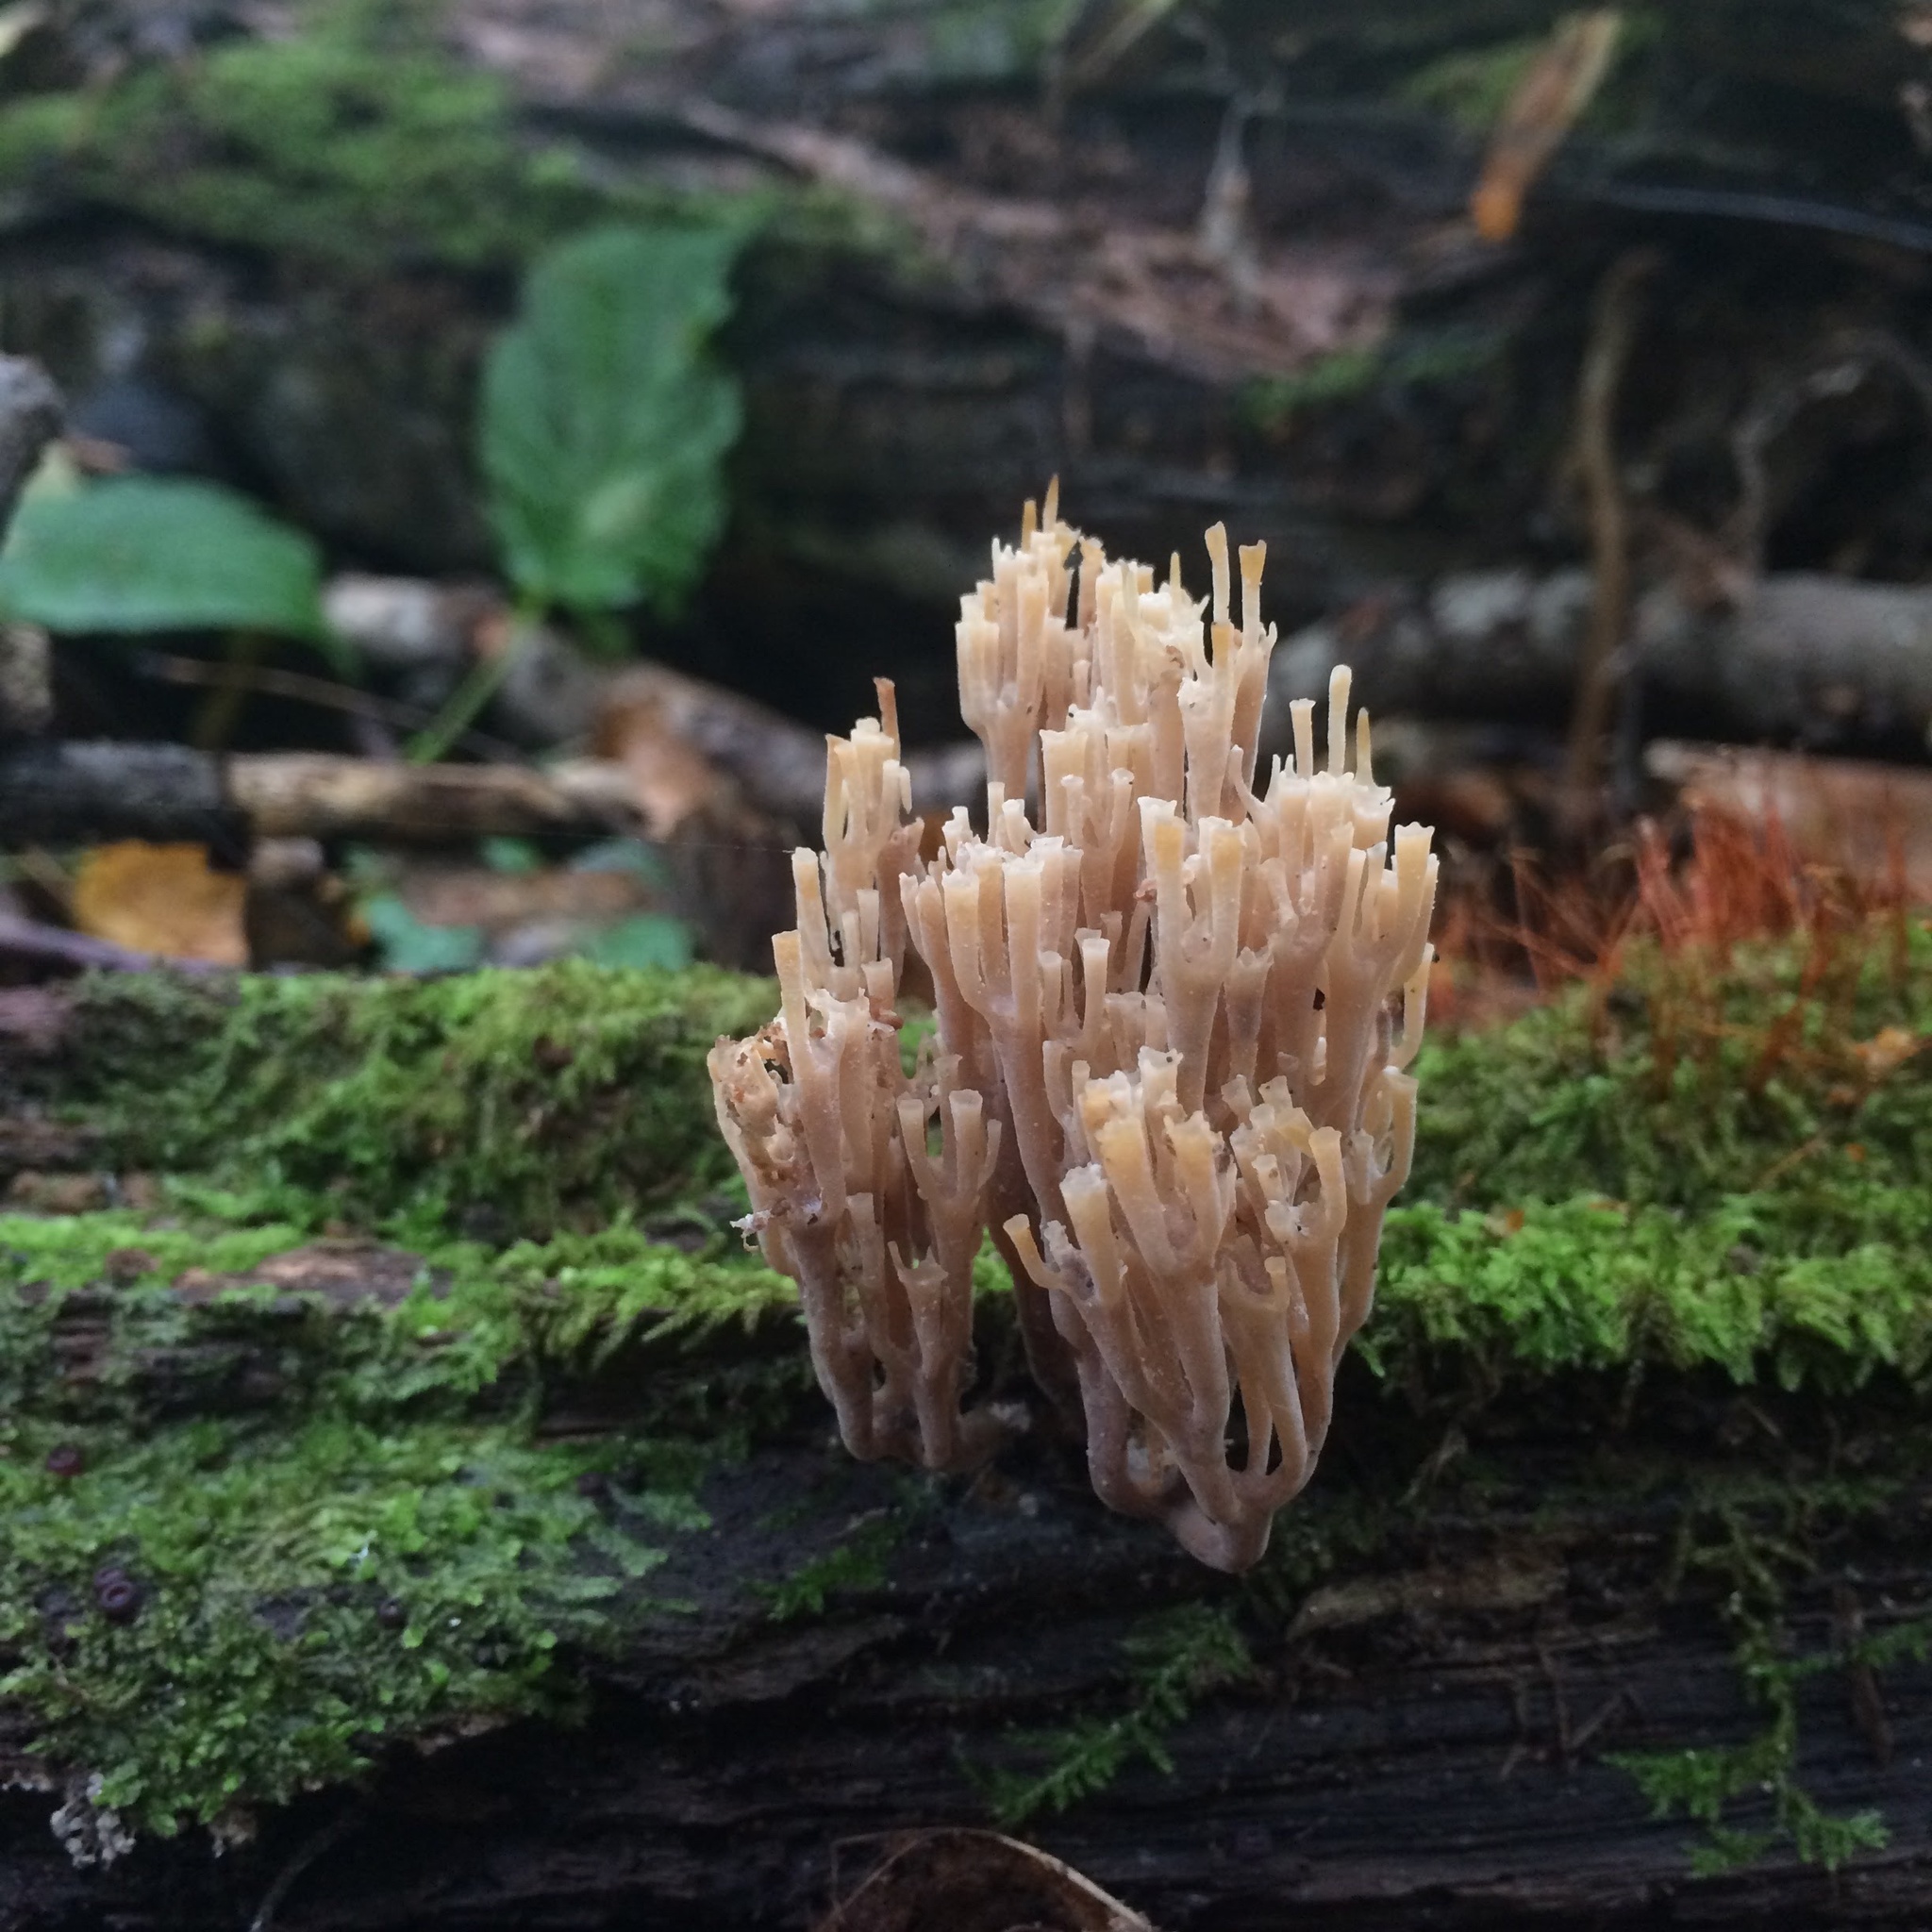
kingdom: Fungi
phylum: Basidiomycota
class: Agaricomycetes
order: Russulales
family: Auriscalpiaceae
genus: Artomyces
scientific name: Artomyces pyxidatus
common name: Crown-tipped coral fungus
